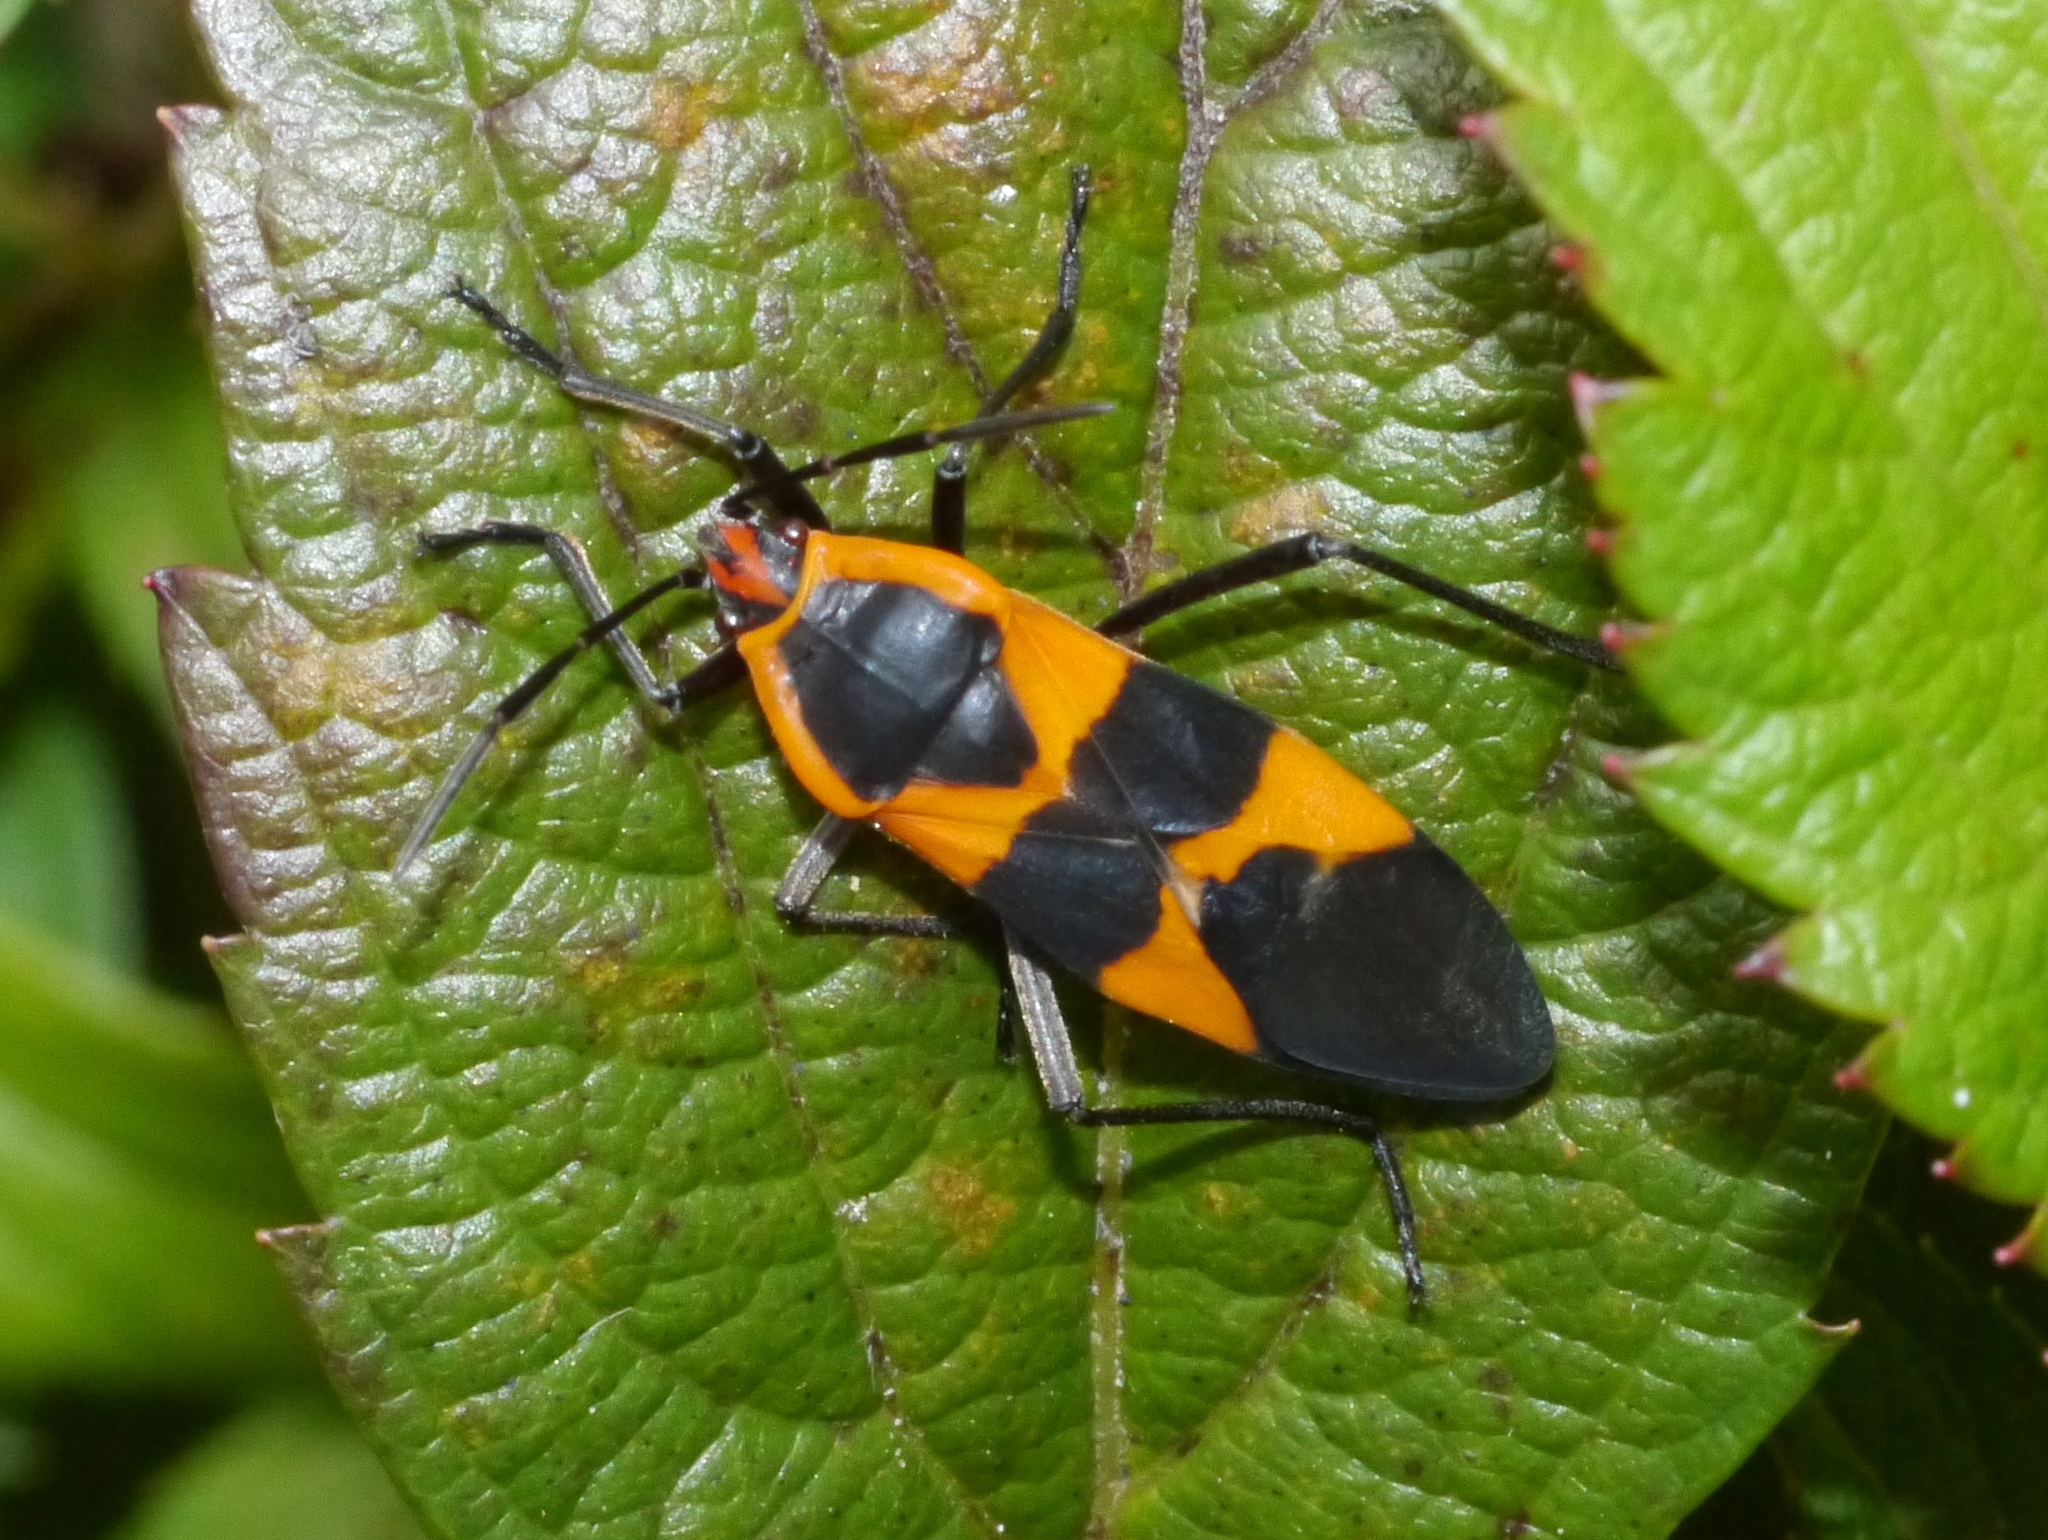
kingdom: Animalia
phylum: Arthropoda
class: Insecta
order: Hemiptera
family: Lygaeidae
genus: Oncopeltus
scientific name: Oncopeltus fasciatus
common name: Large milkweed bug
